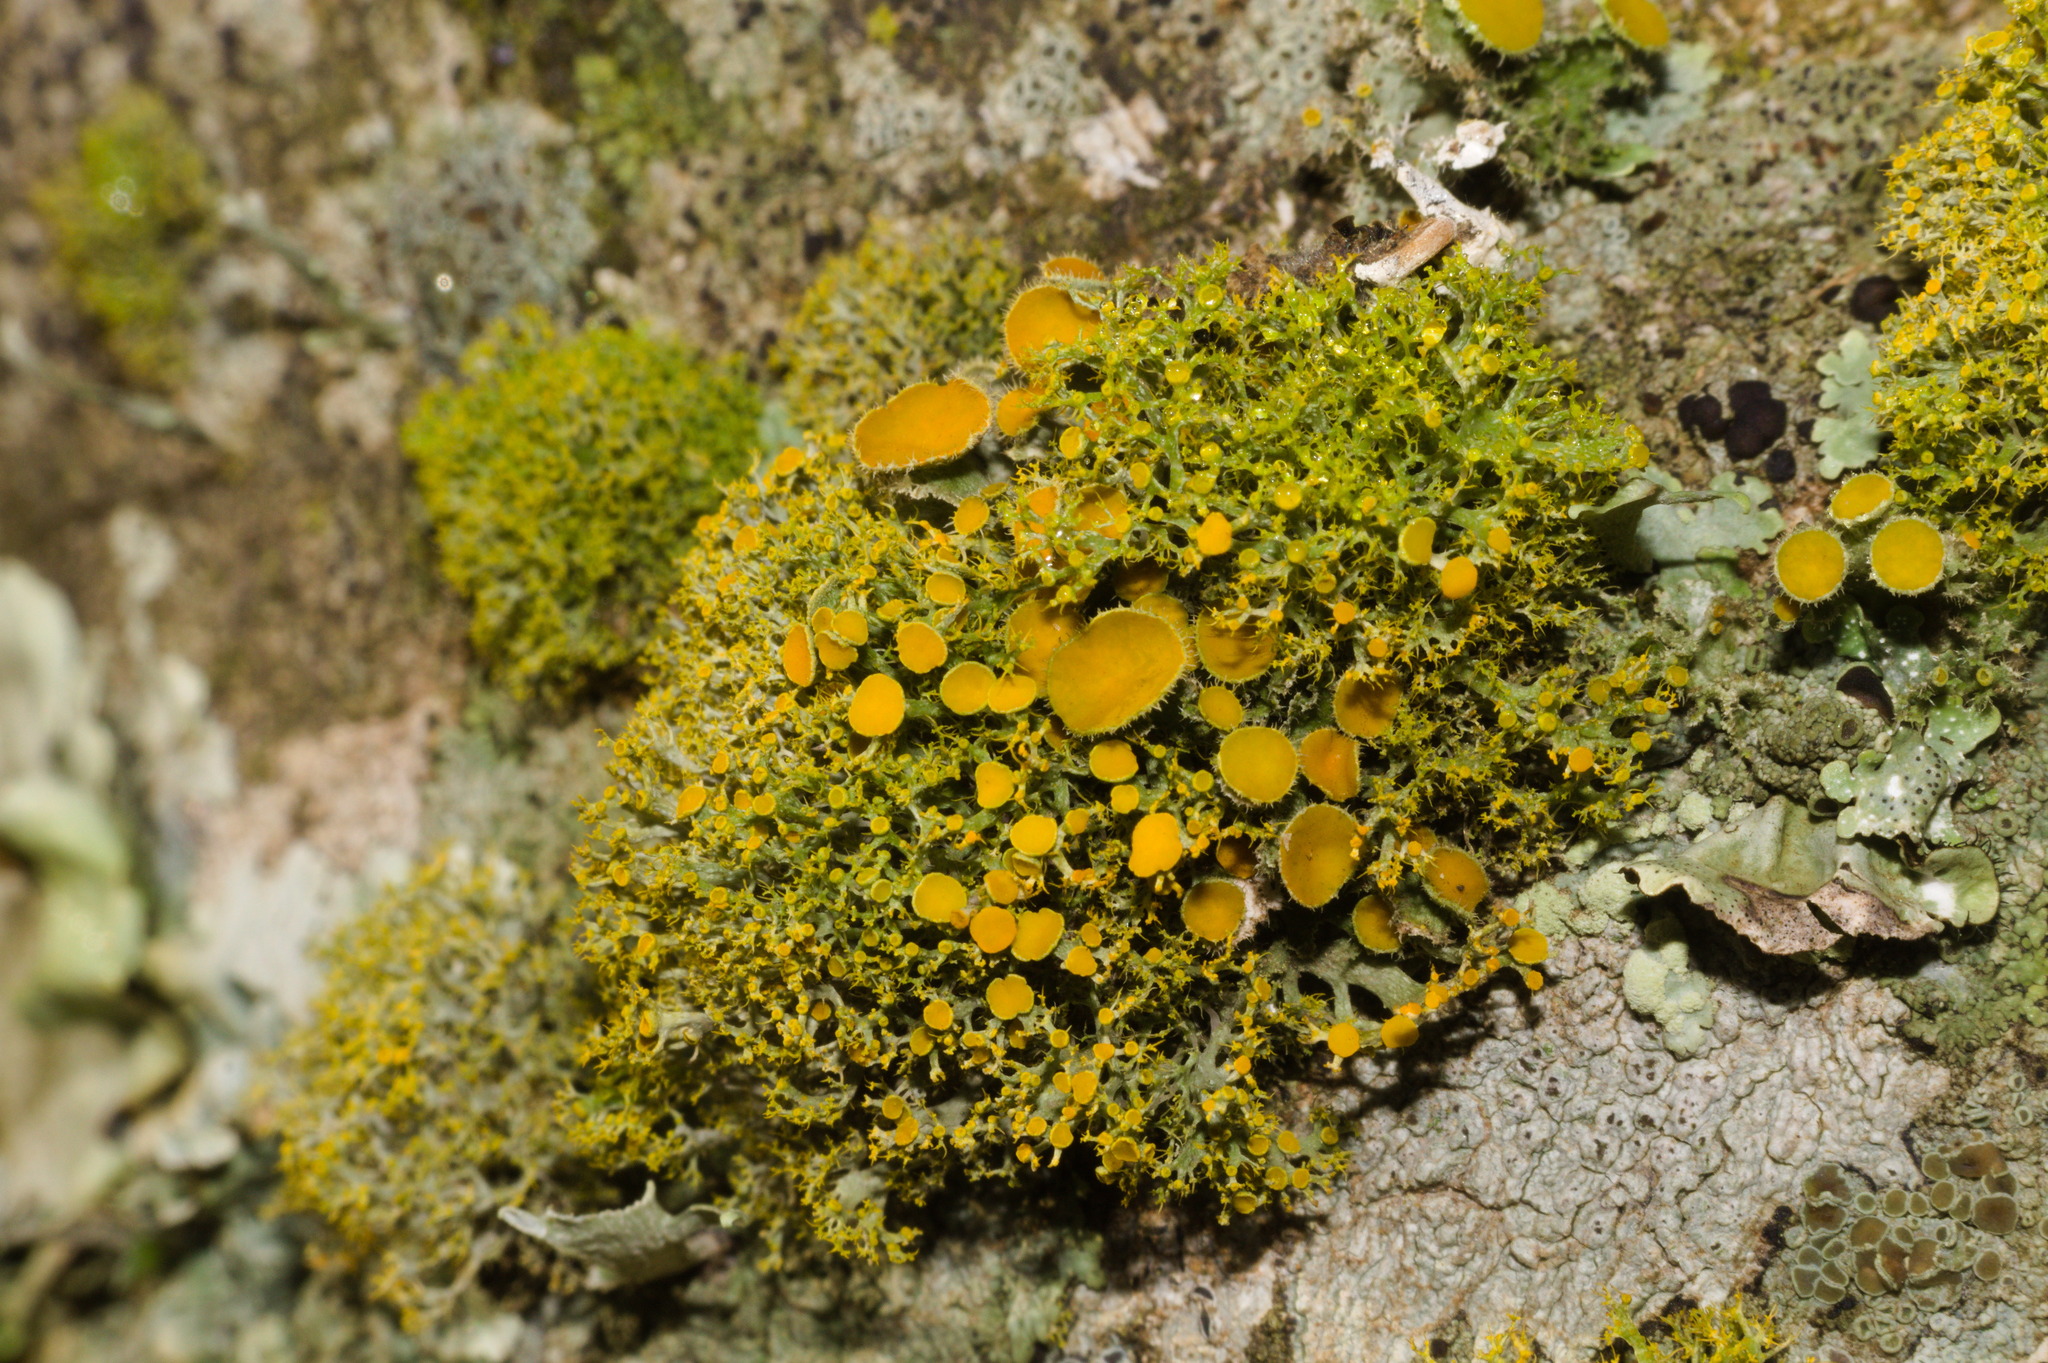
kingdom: Fungi
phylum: Ascomycota
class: Lecanoromycetes
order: Teloschistales
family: Teloschistaceae
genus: Niorma
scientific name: Niorma chrysophthalma
